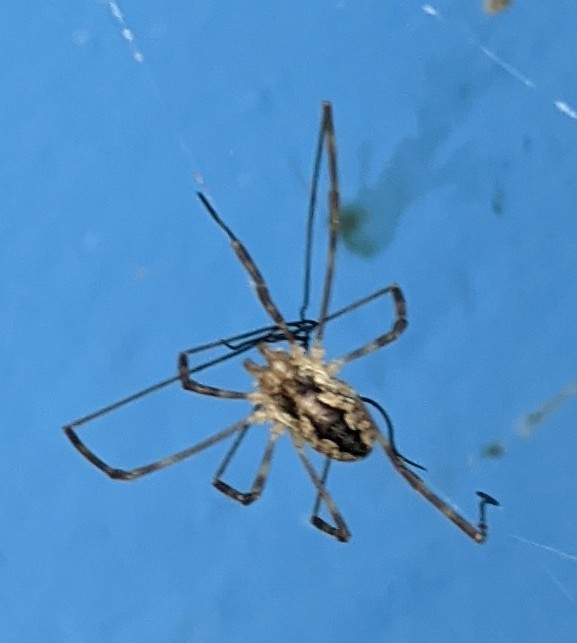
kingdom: Animalia
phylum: Arthropoda
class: Arachnida
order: Opiliones
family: Phalangiidae
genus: Odiellus
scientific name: Odiellus pictus
